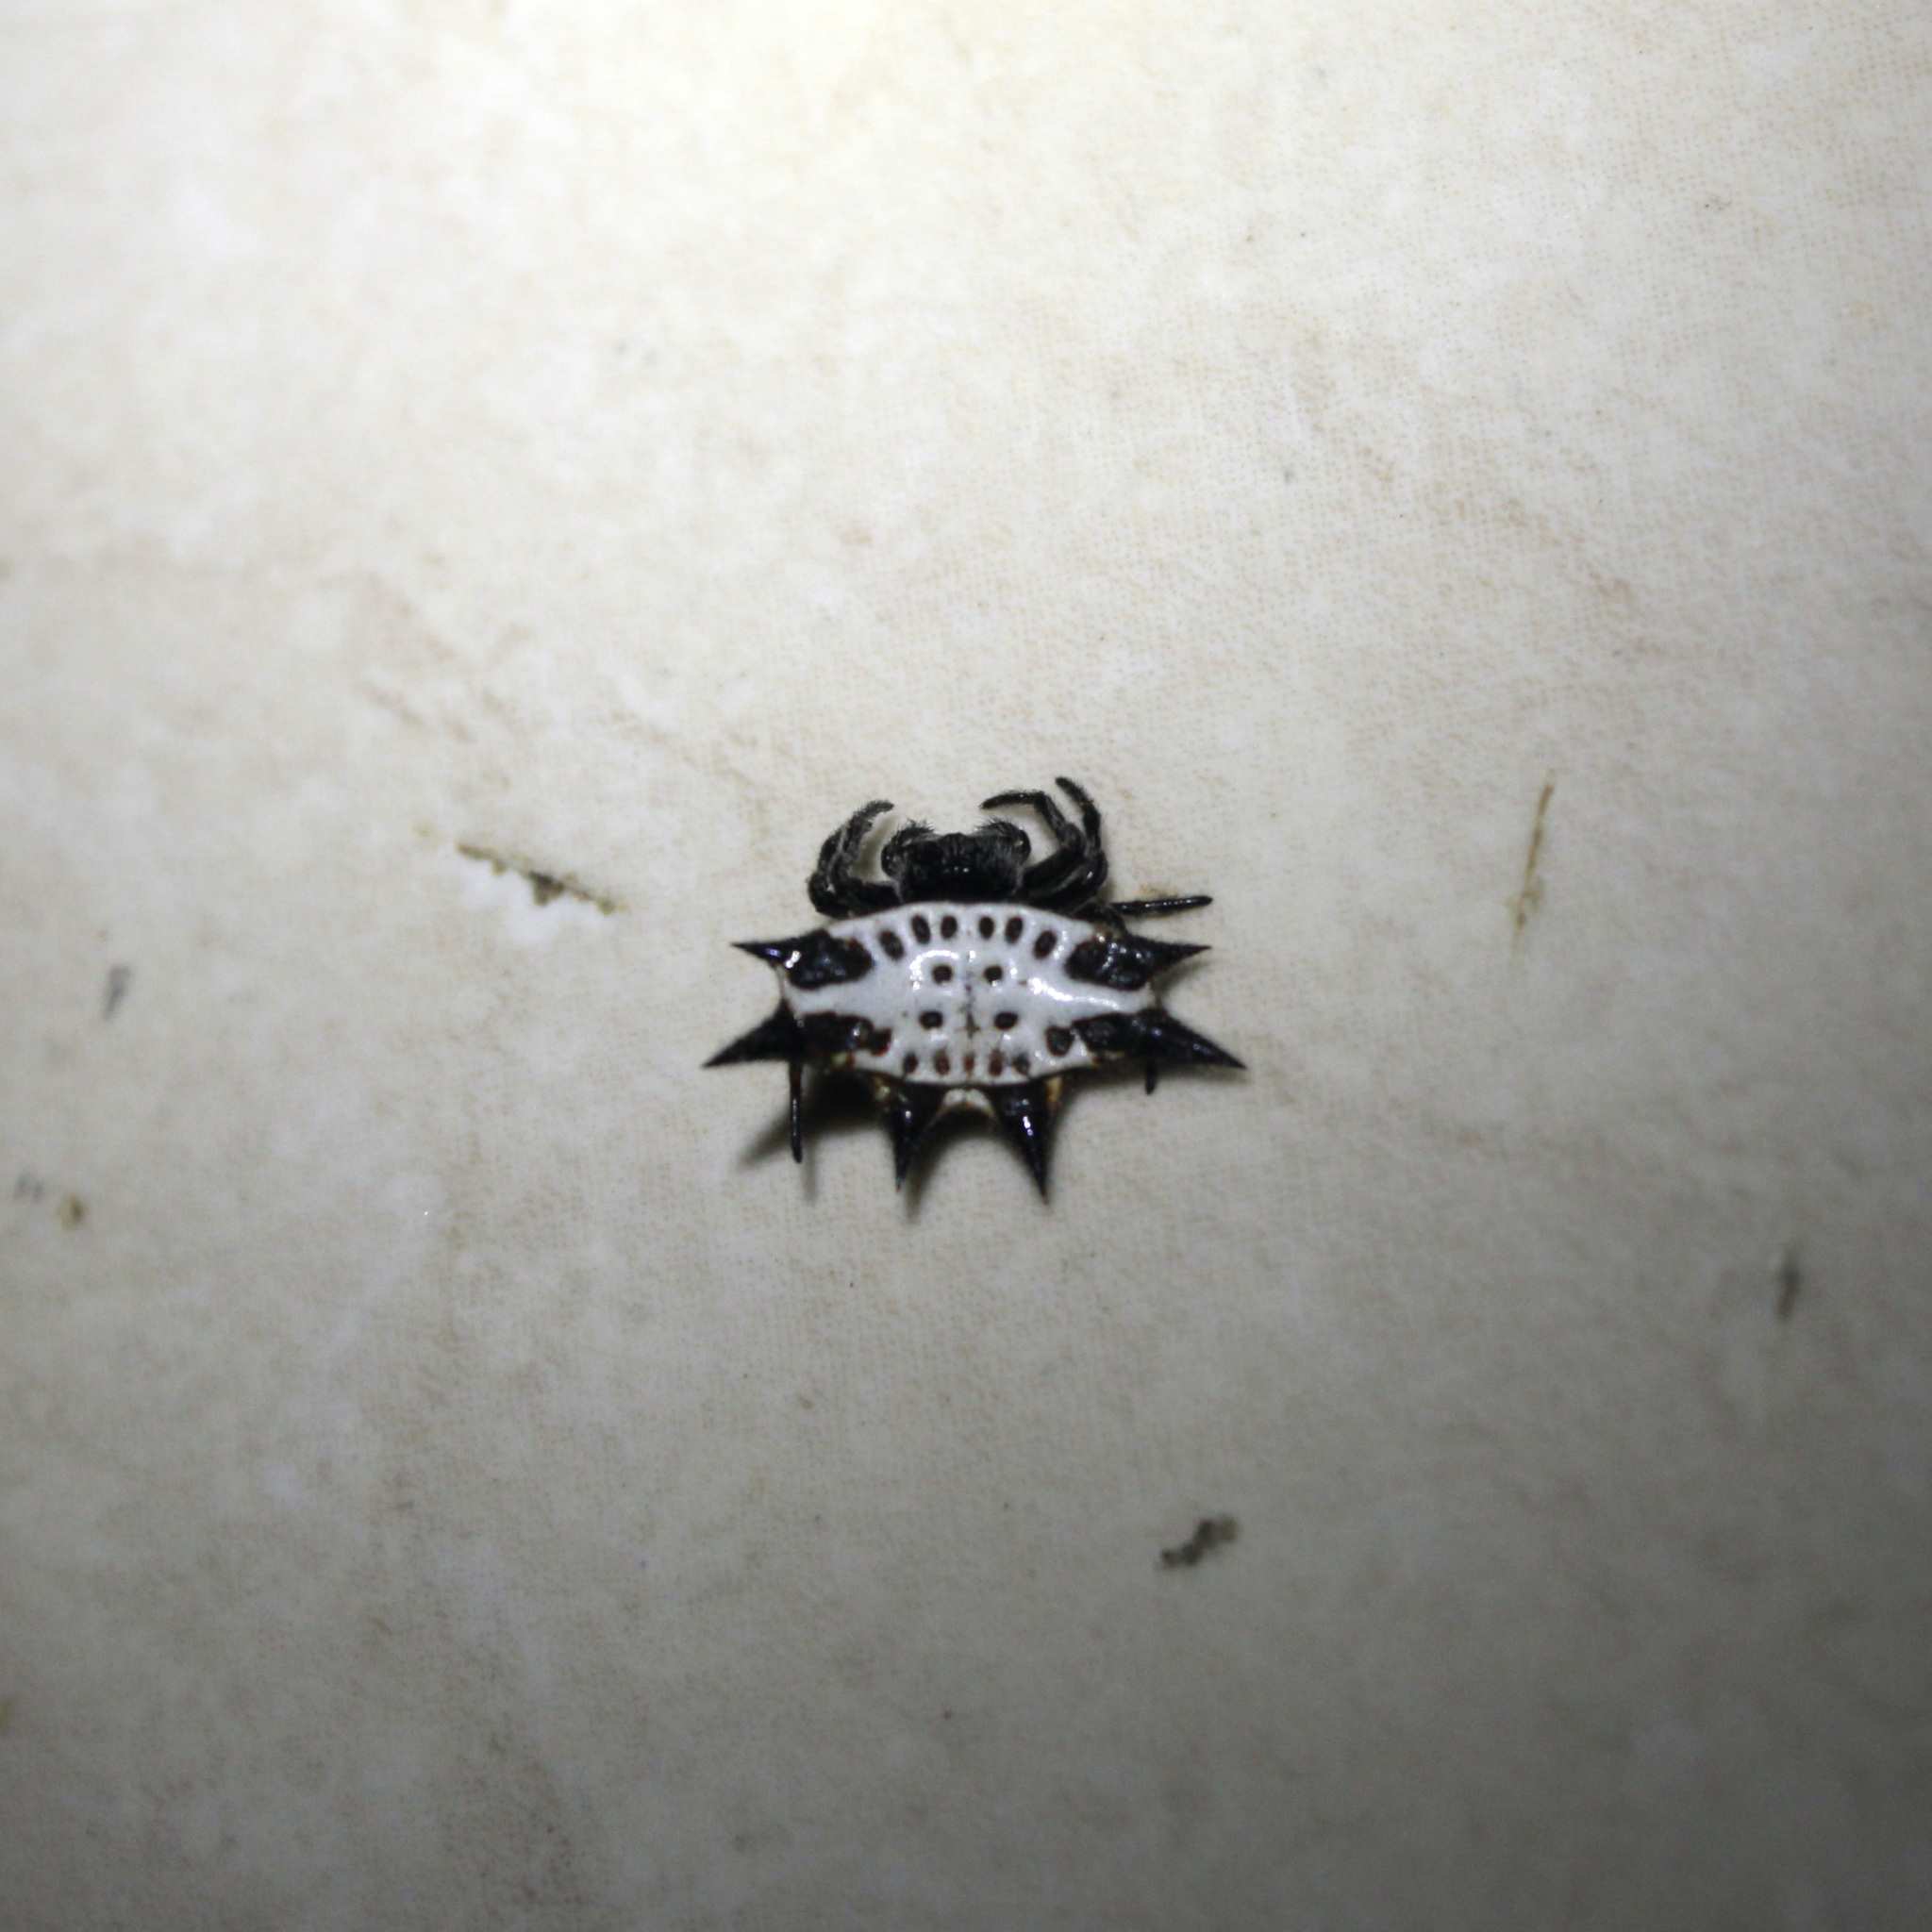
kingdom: Animalia
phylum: Arthropoda
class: Arachnida
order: Araneae
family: Araneidae
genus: Gasteracantha
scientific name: Gasteracantha cancriformis
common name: Orb weavers
